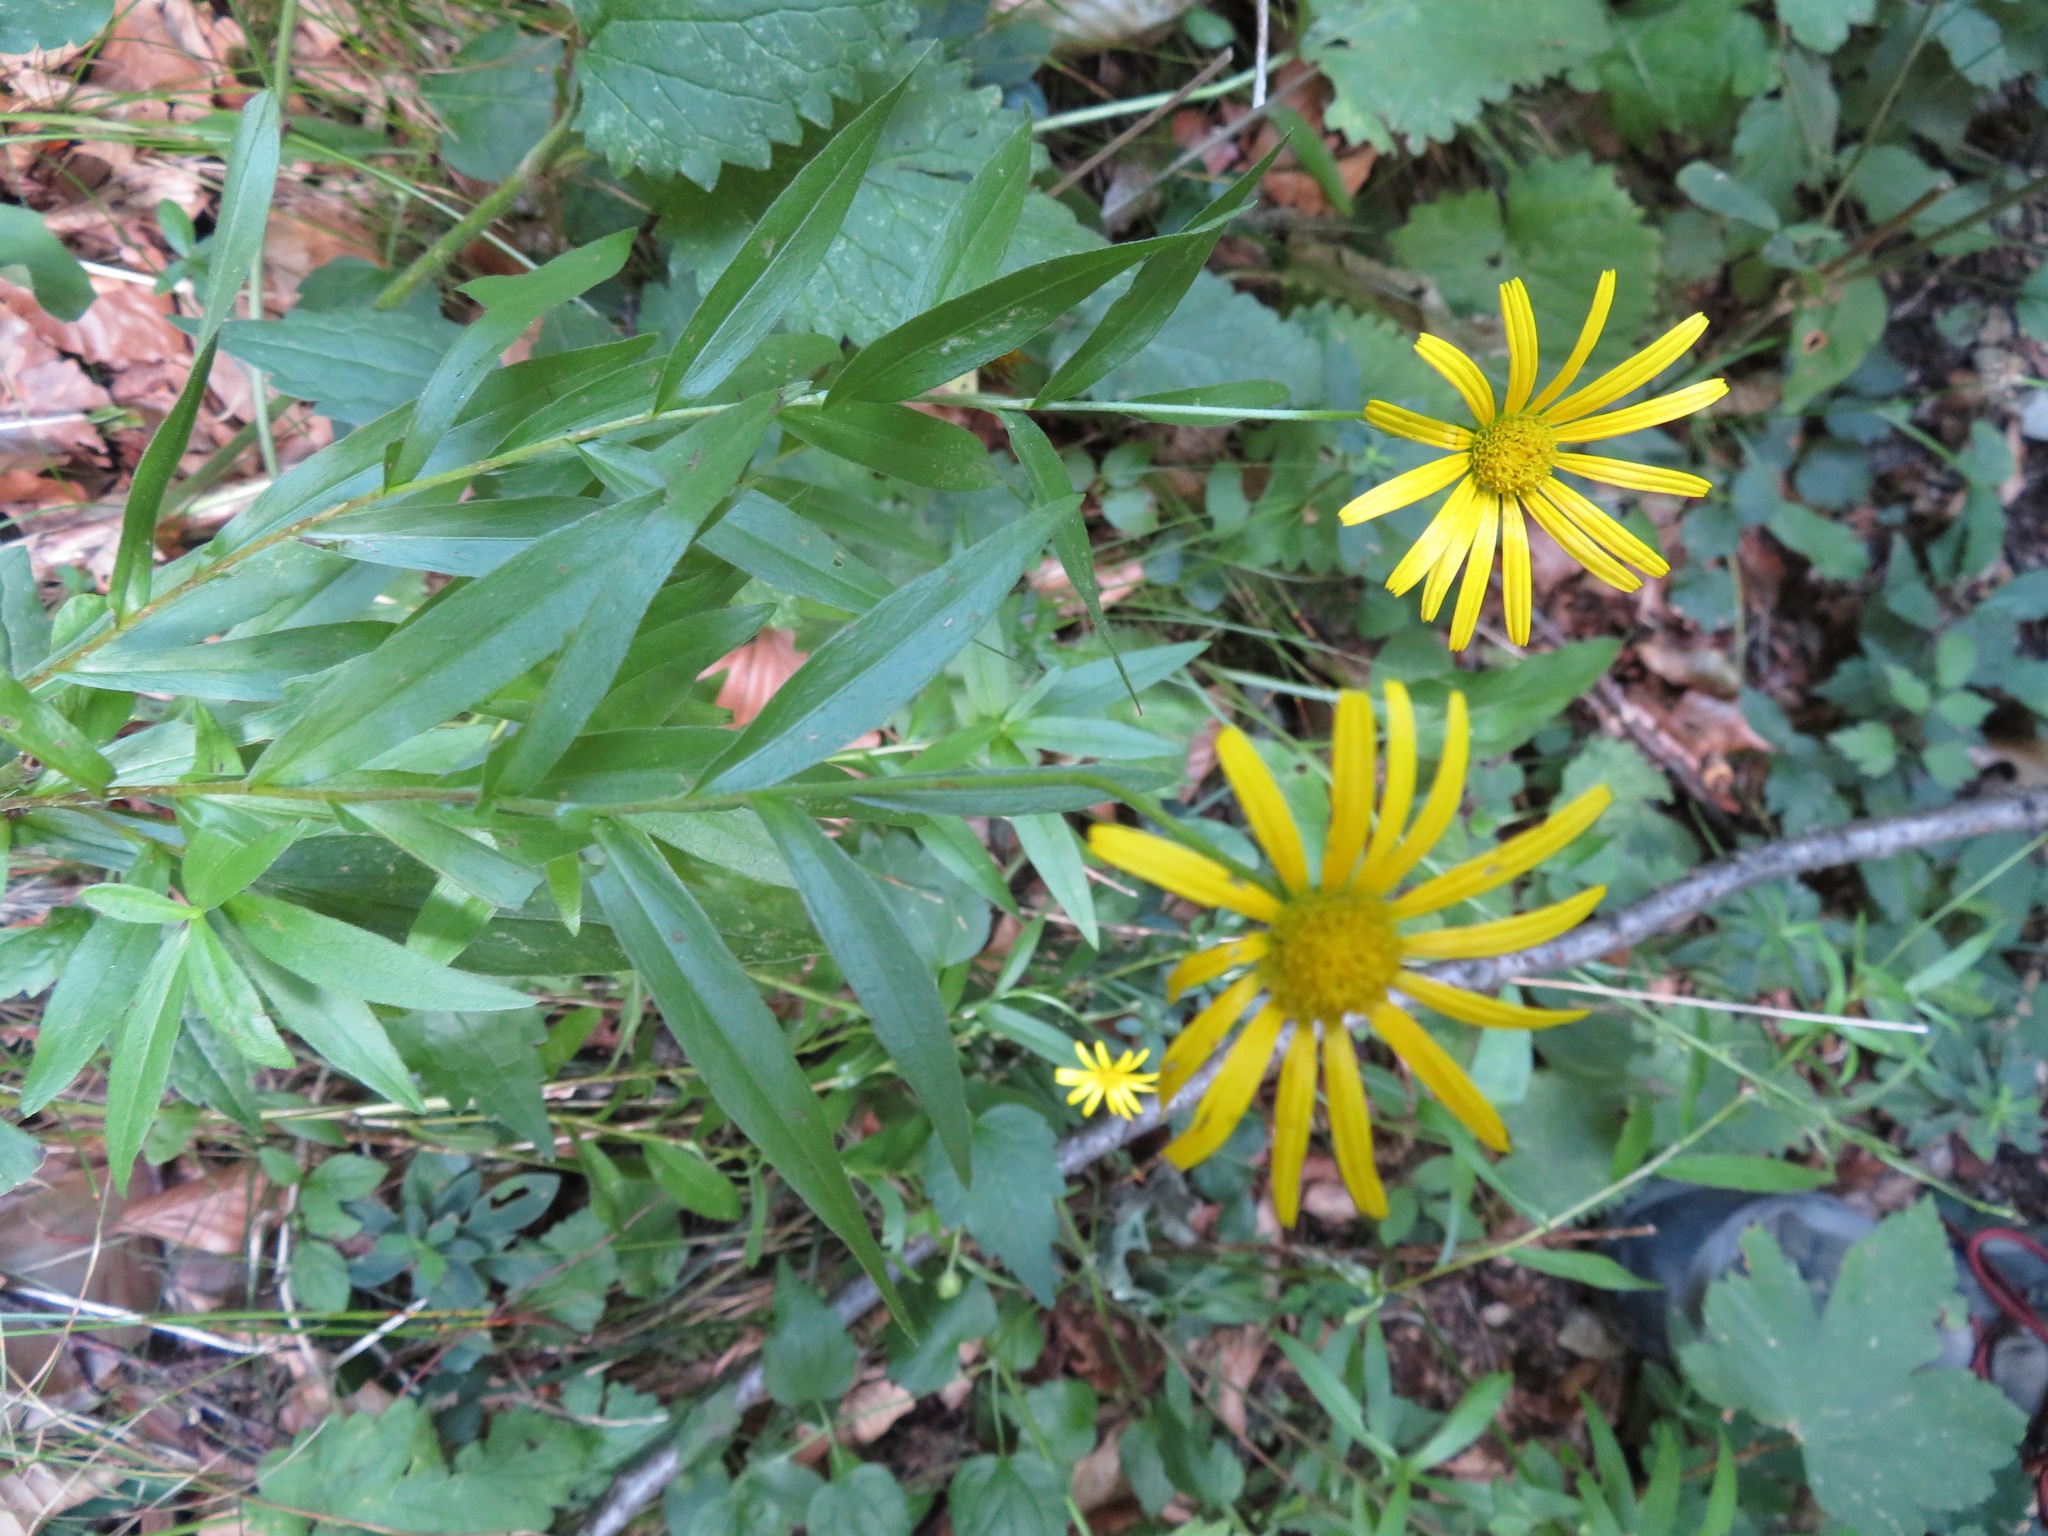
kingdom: Plantae
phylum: Tracheophyta
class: Magnoliopsida
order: Asterales
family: Asteraceae
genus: Buphthalmum
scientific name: Buphthalmum salicifolium
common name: Willow-leaved yellow-oxeye
